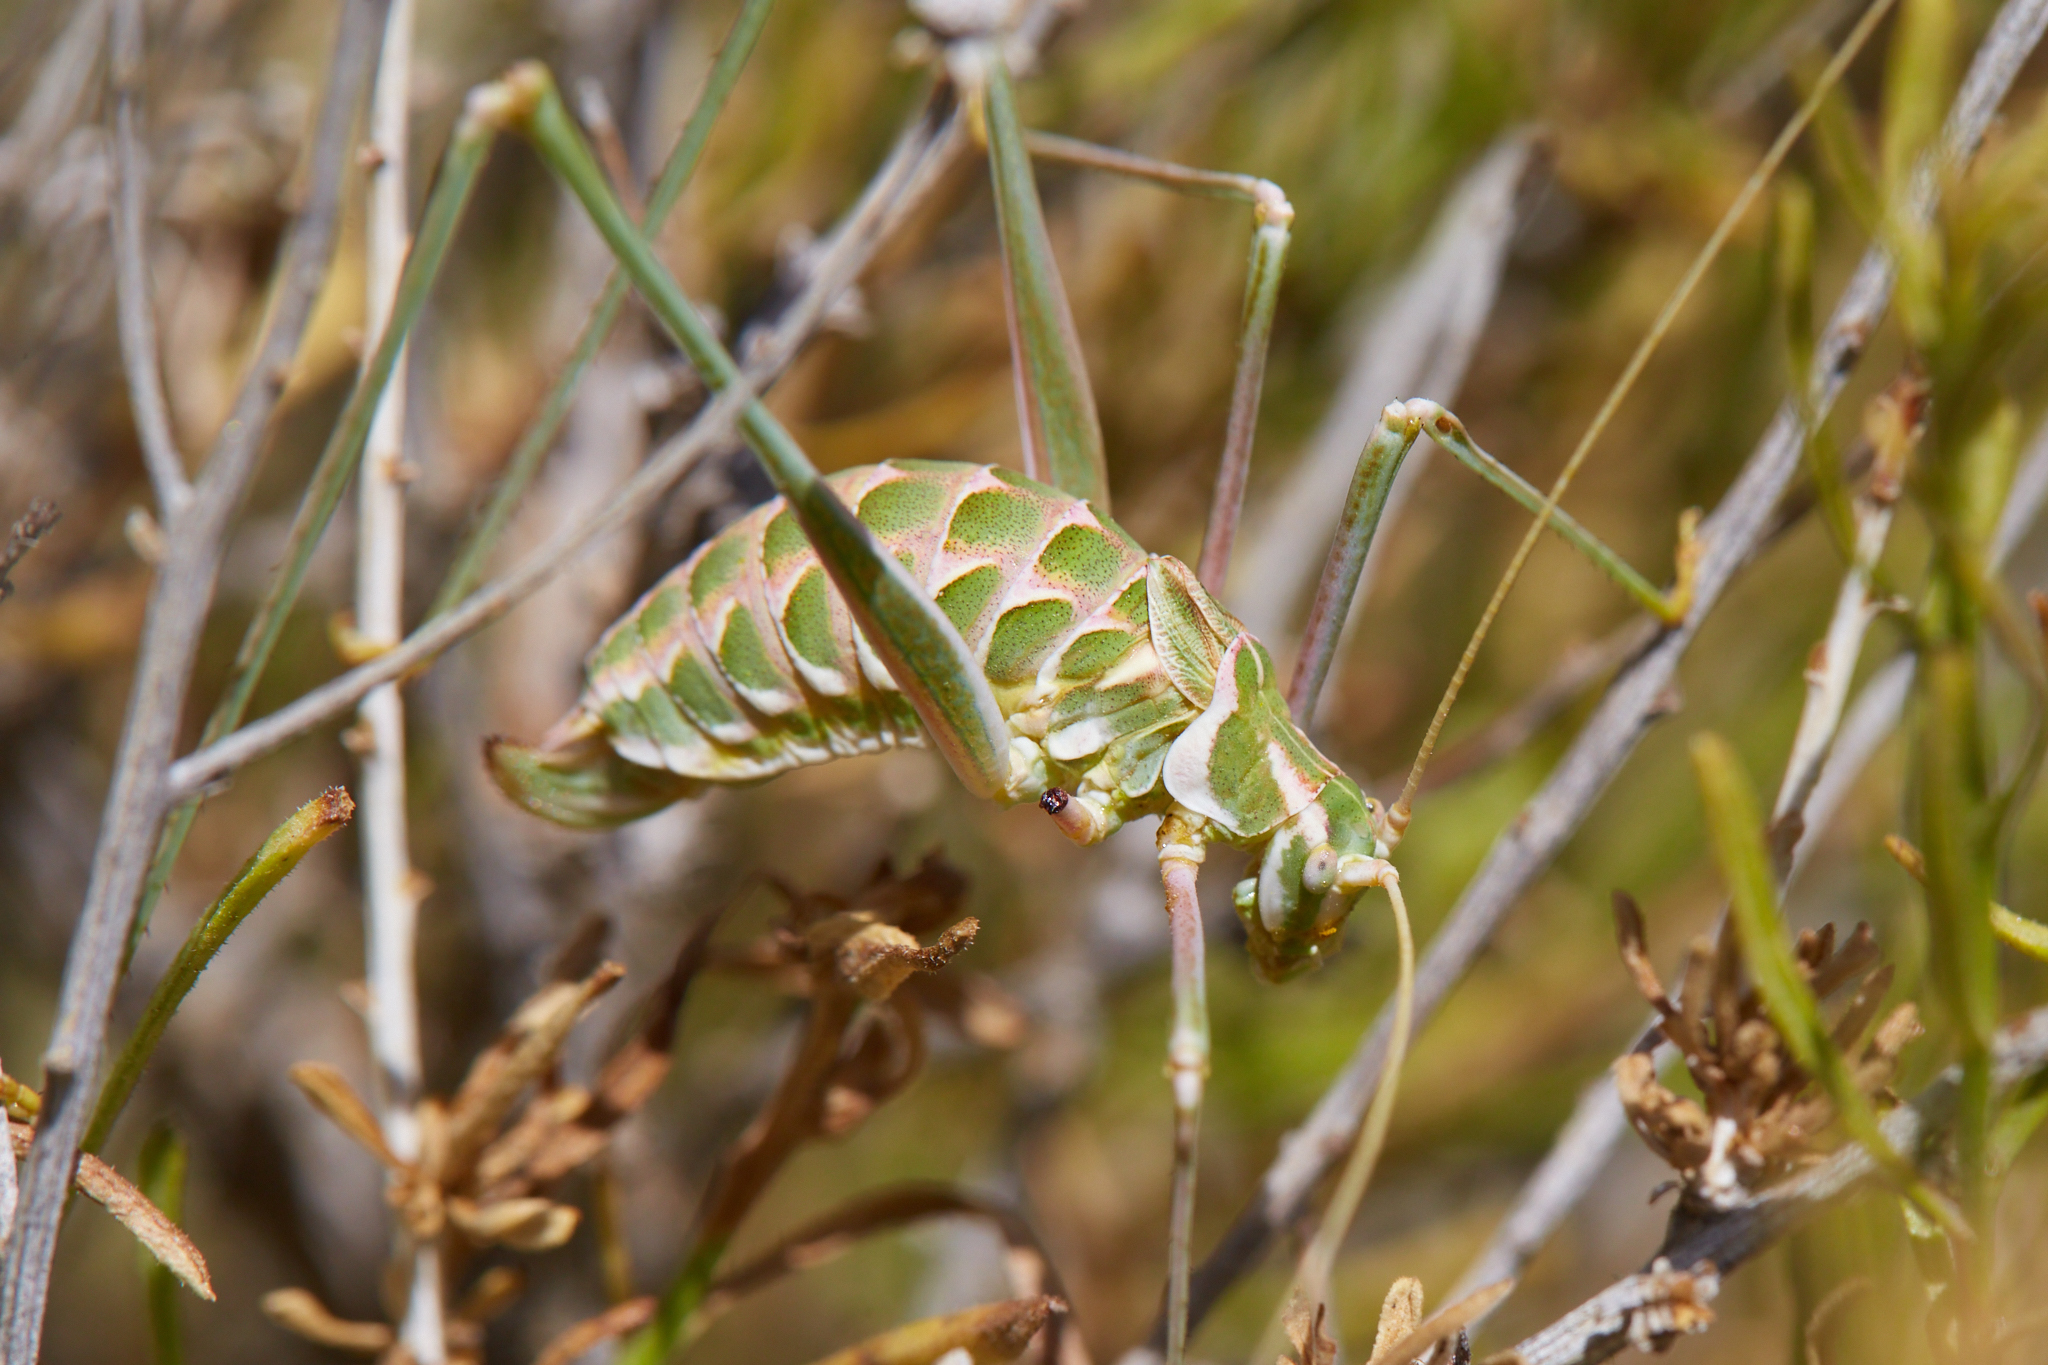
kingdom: Animalia
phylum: Arthropoda
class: Insecta
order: Orthoptera
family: Tettigoniidae
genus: Arethaea
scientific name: Arethaea brevicauda
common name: Short-tail thread-legged katydid
